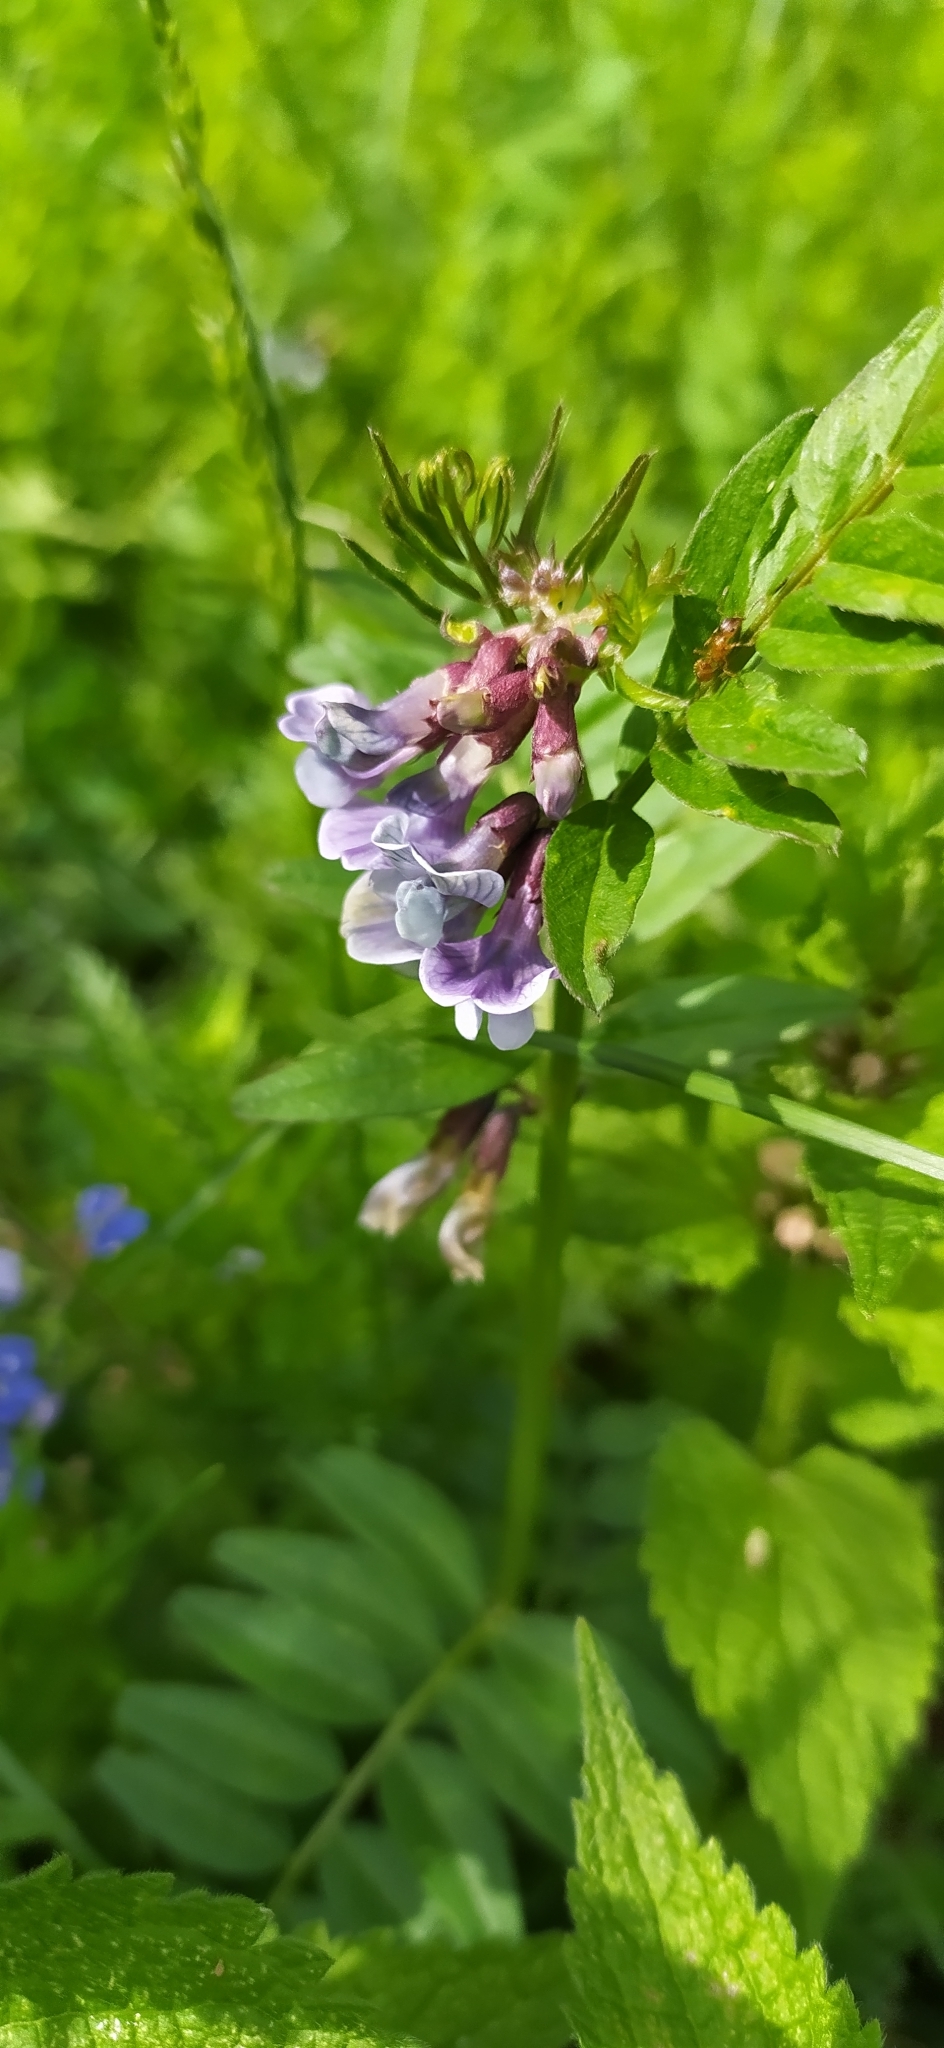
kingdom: Plantae
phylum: Tracheophyta
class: Magnoliopsida
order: Fabales
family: Fabaceae
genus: Vicia
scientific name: Vicia sepium
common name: Bush vetch
